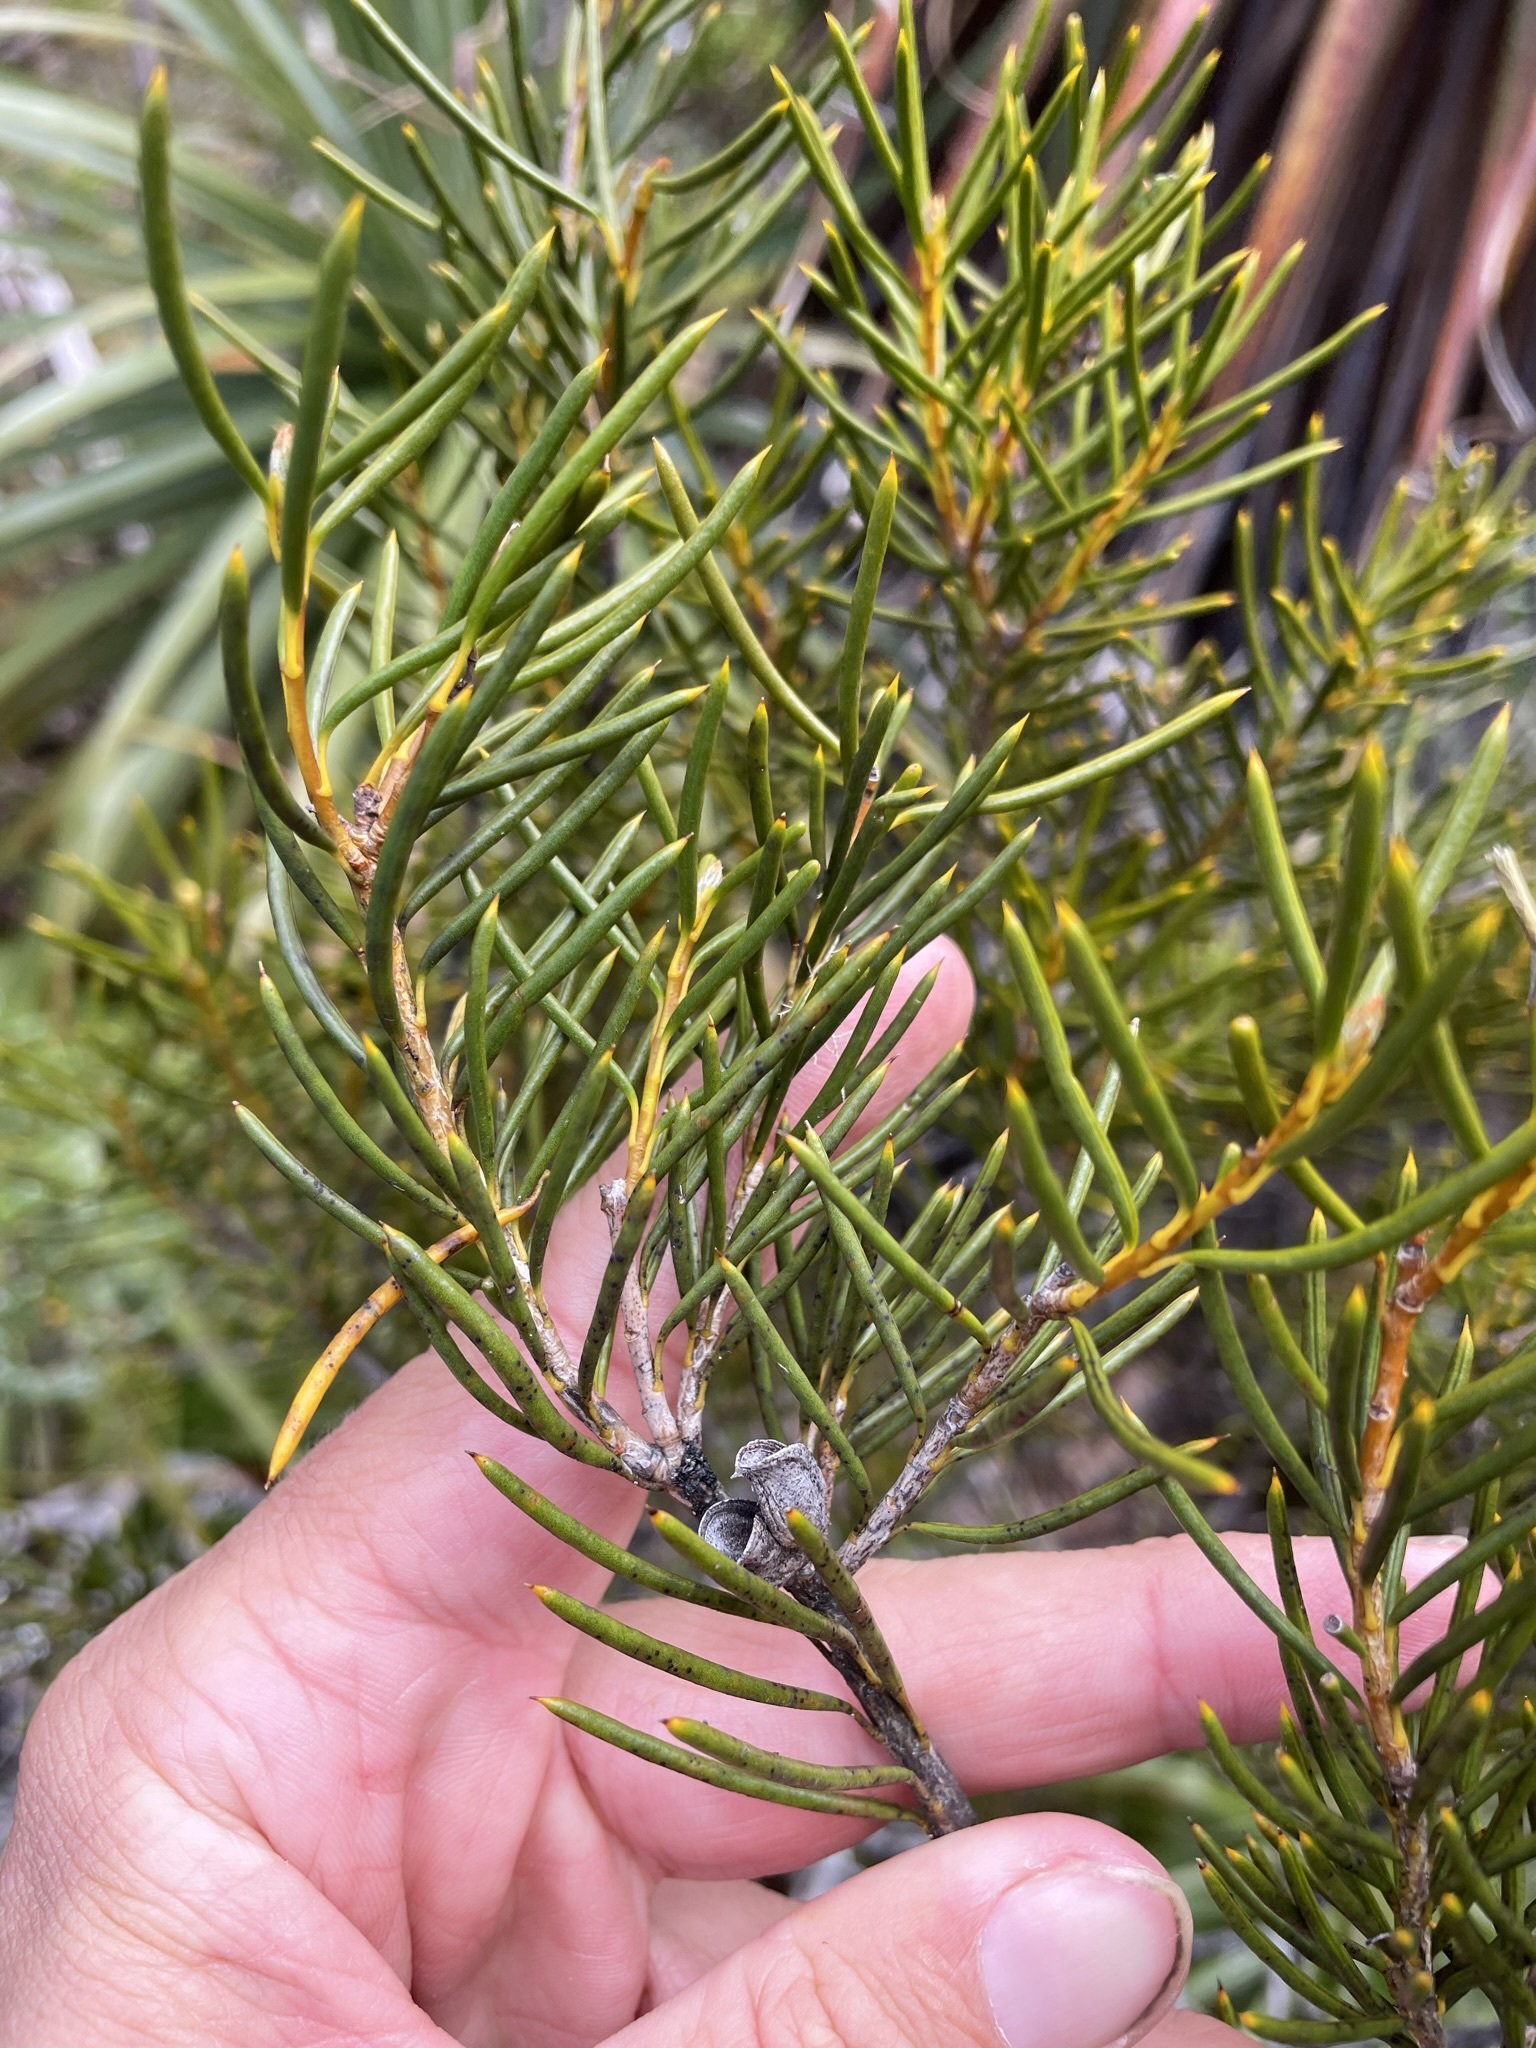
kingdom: Plantae
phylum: Tracheophyta
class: Magnoliopsida
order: Proteales
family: Proteaceae
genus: Orites
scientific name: Orites acicularis
